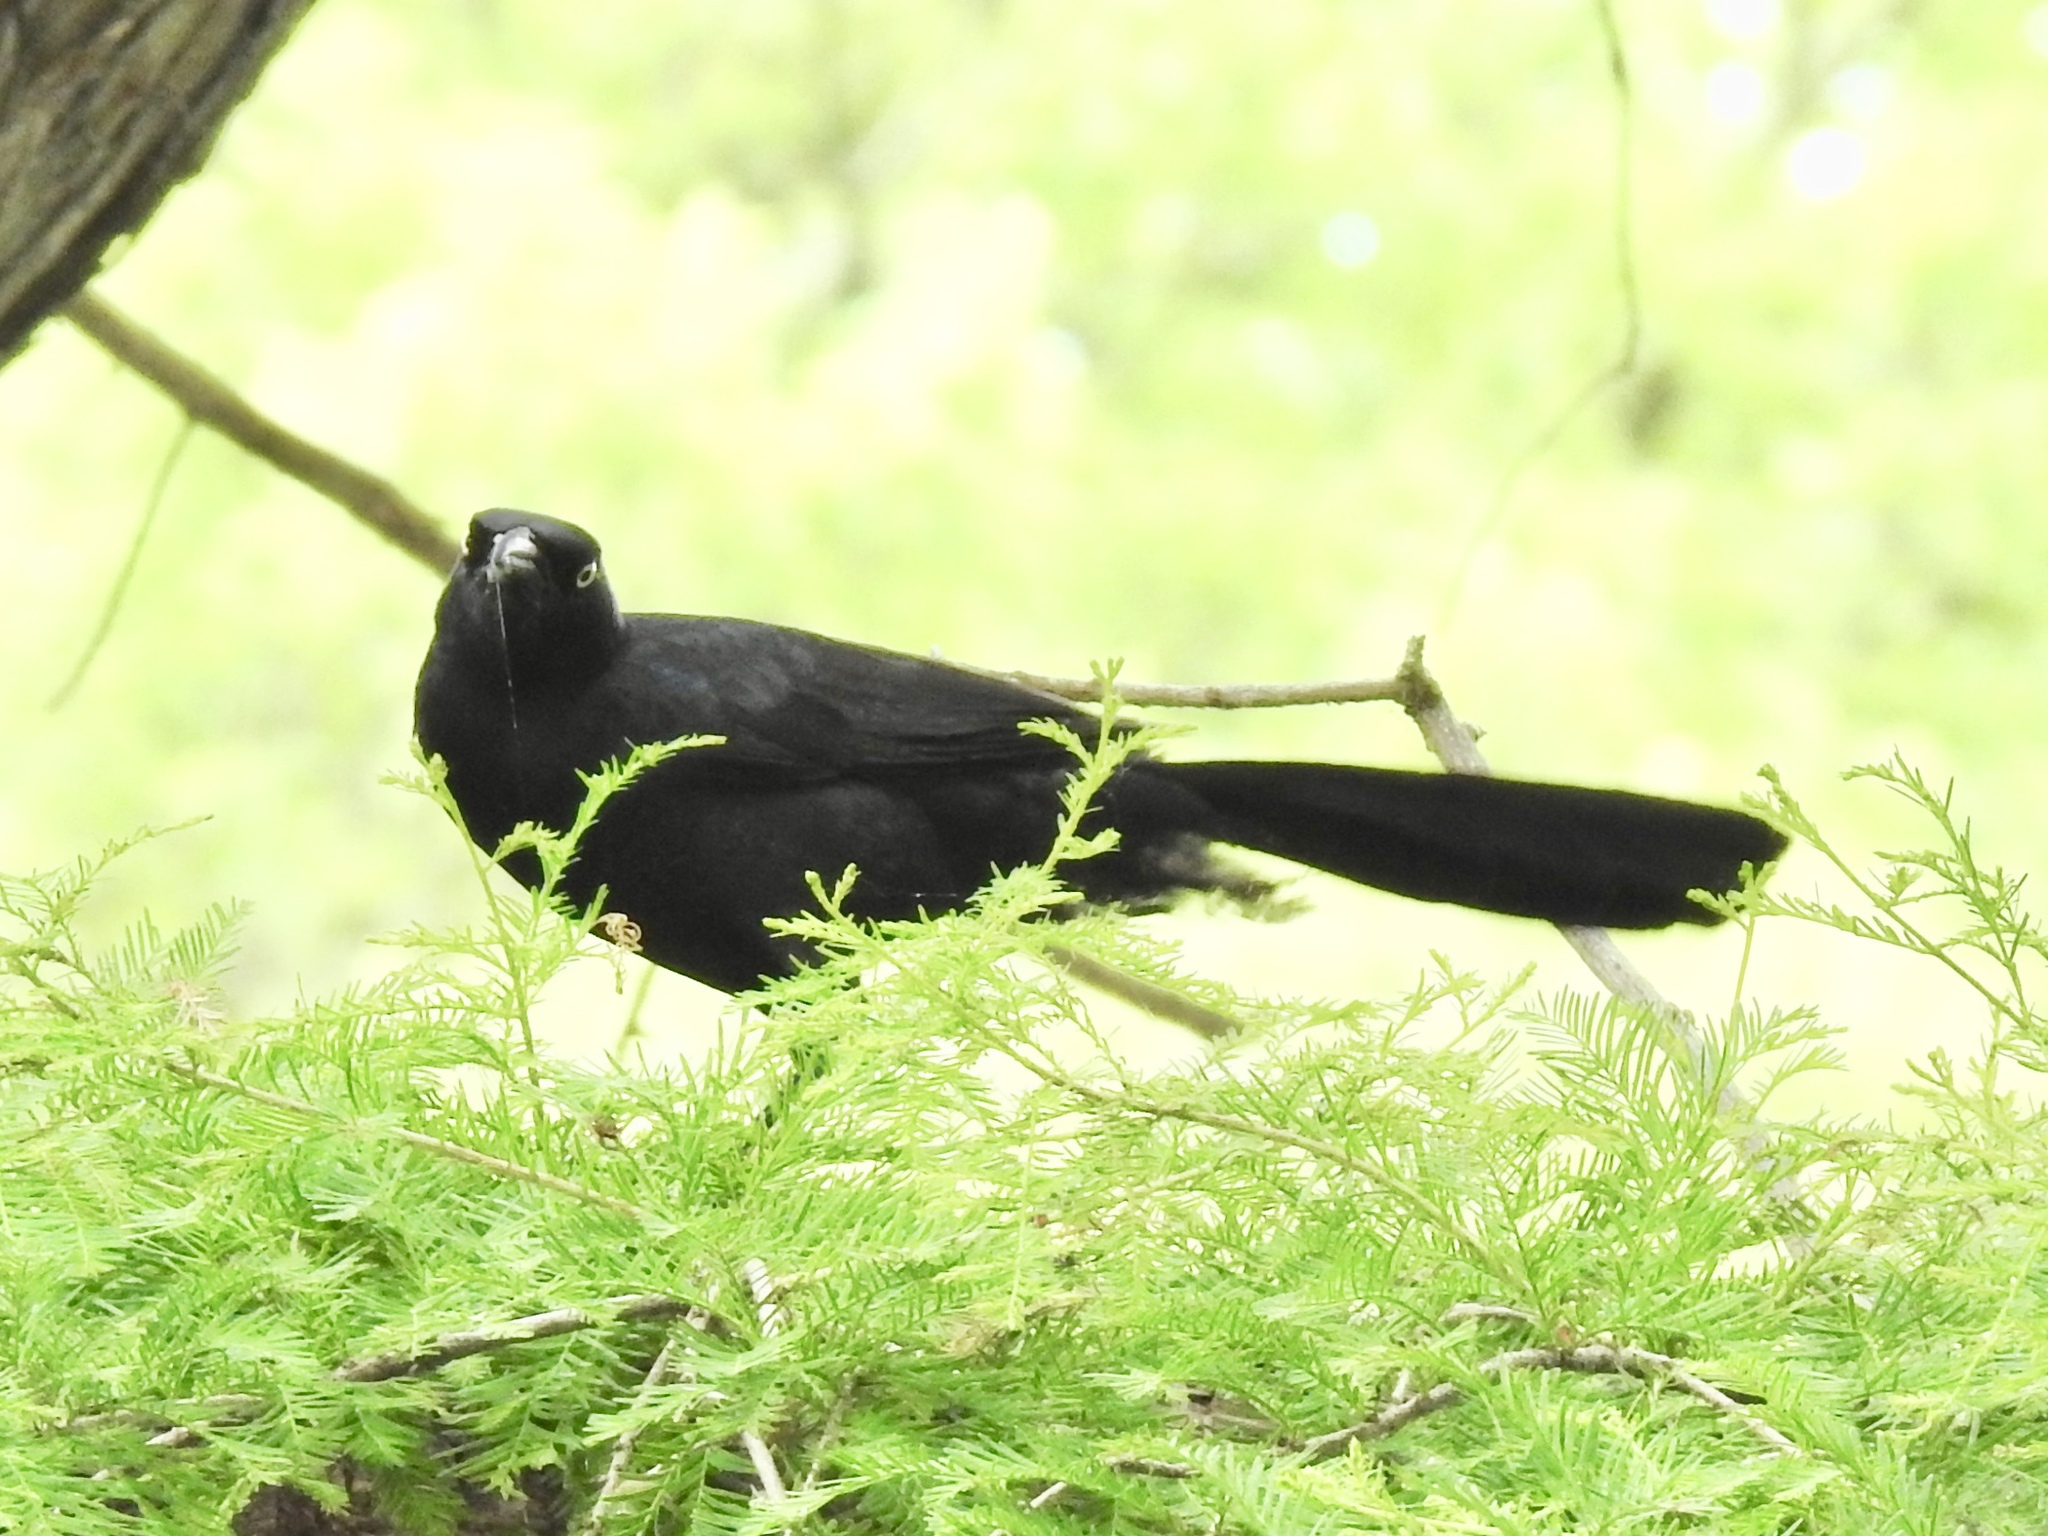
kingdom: Animalia
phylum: Chordata
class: Aves
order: Passeriformes
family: Icteridae
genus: Quiscalus
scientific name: Quiscalus mexicanus
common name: Great-tailed grackle
